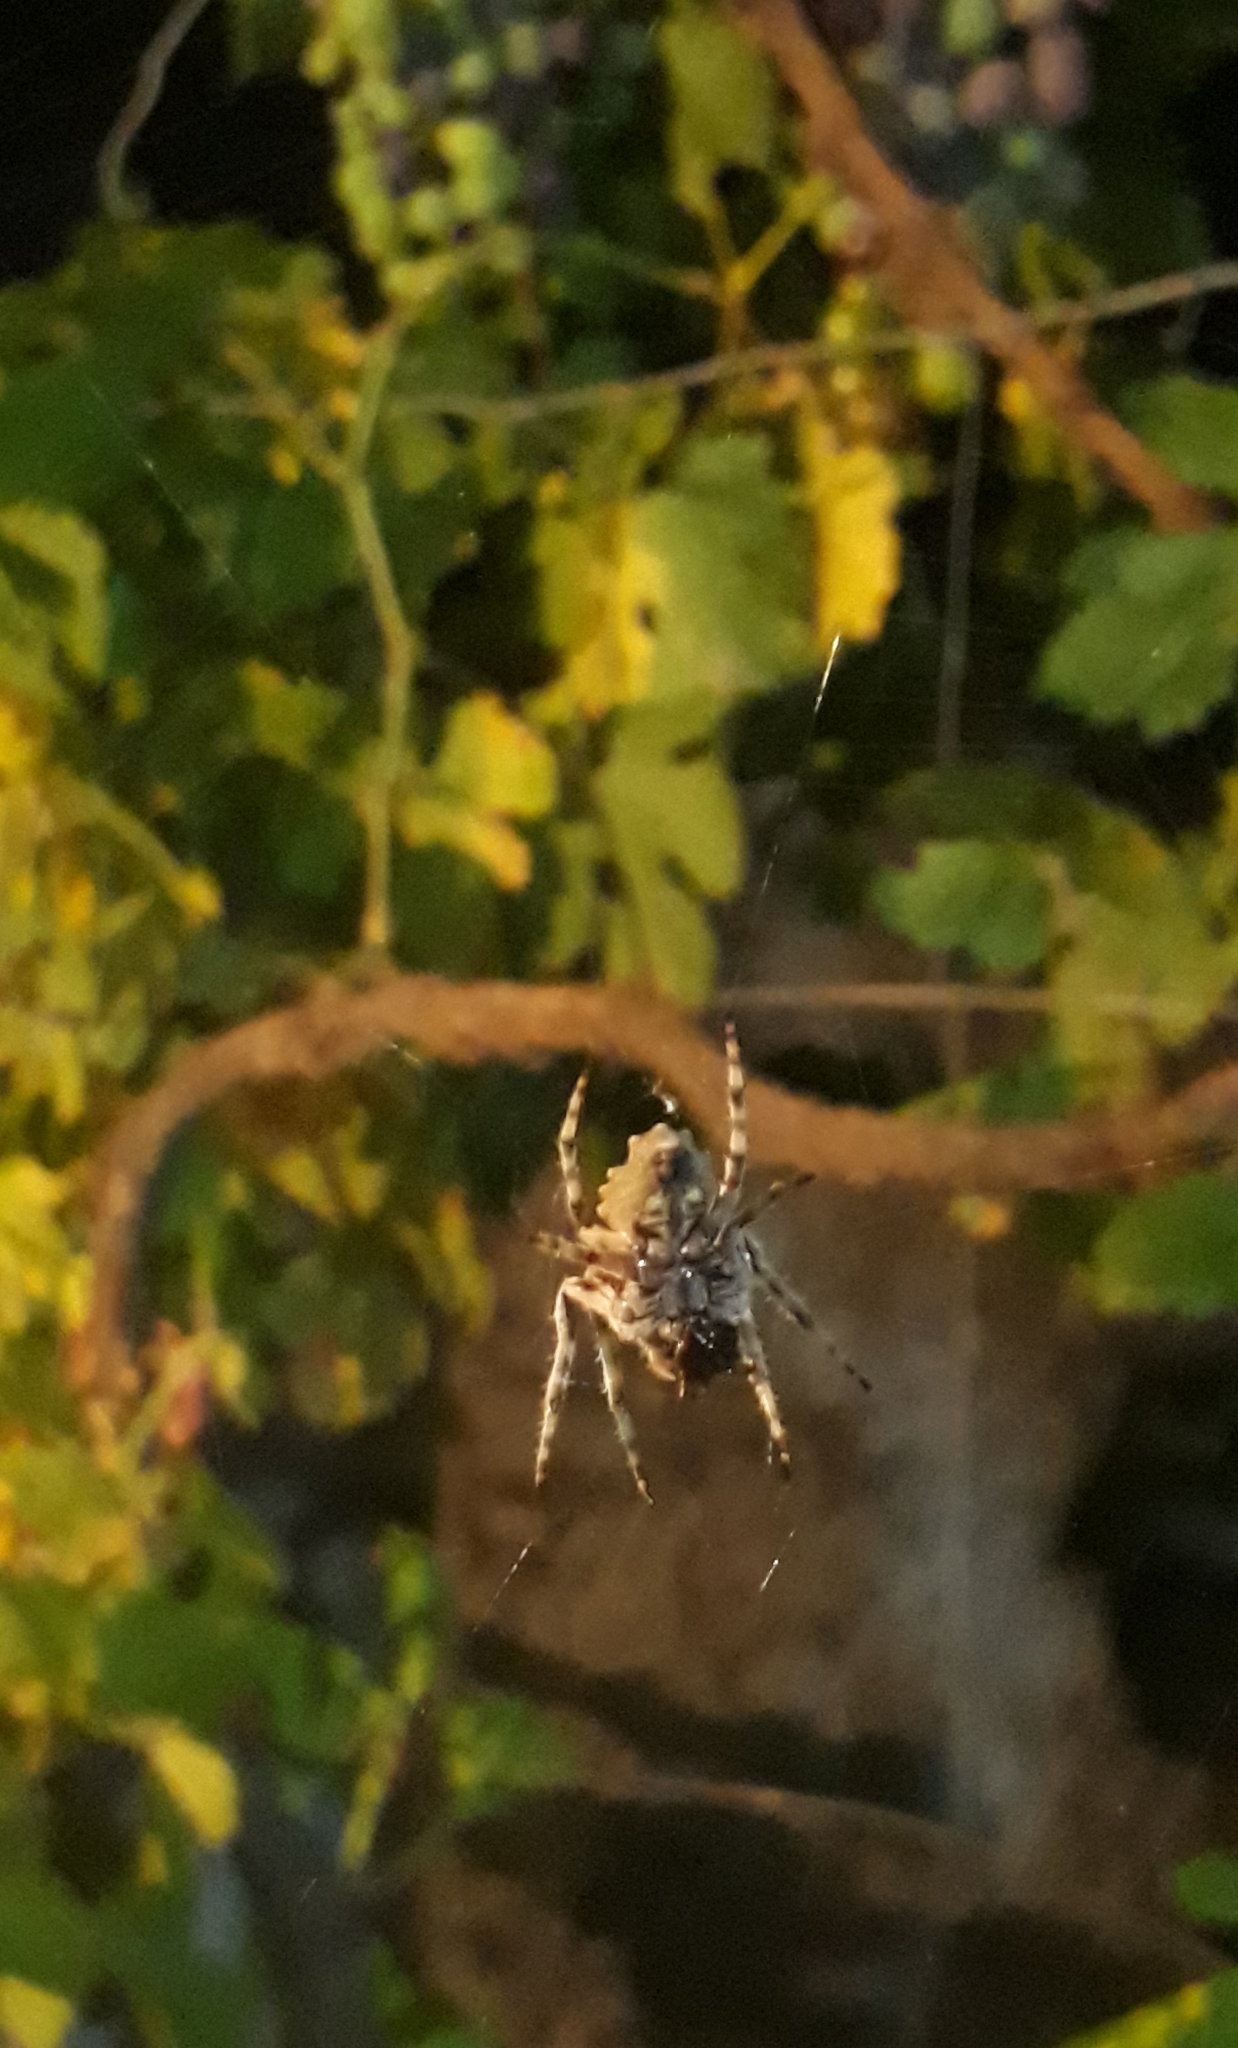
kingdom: Animalia
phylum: Arthropoda
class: Arachnida
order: Araneae
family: Araneidae
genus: Parawixia
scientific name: Parawixia audax
